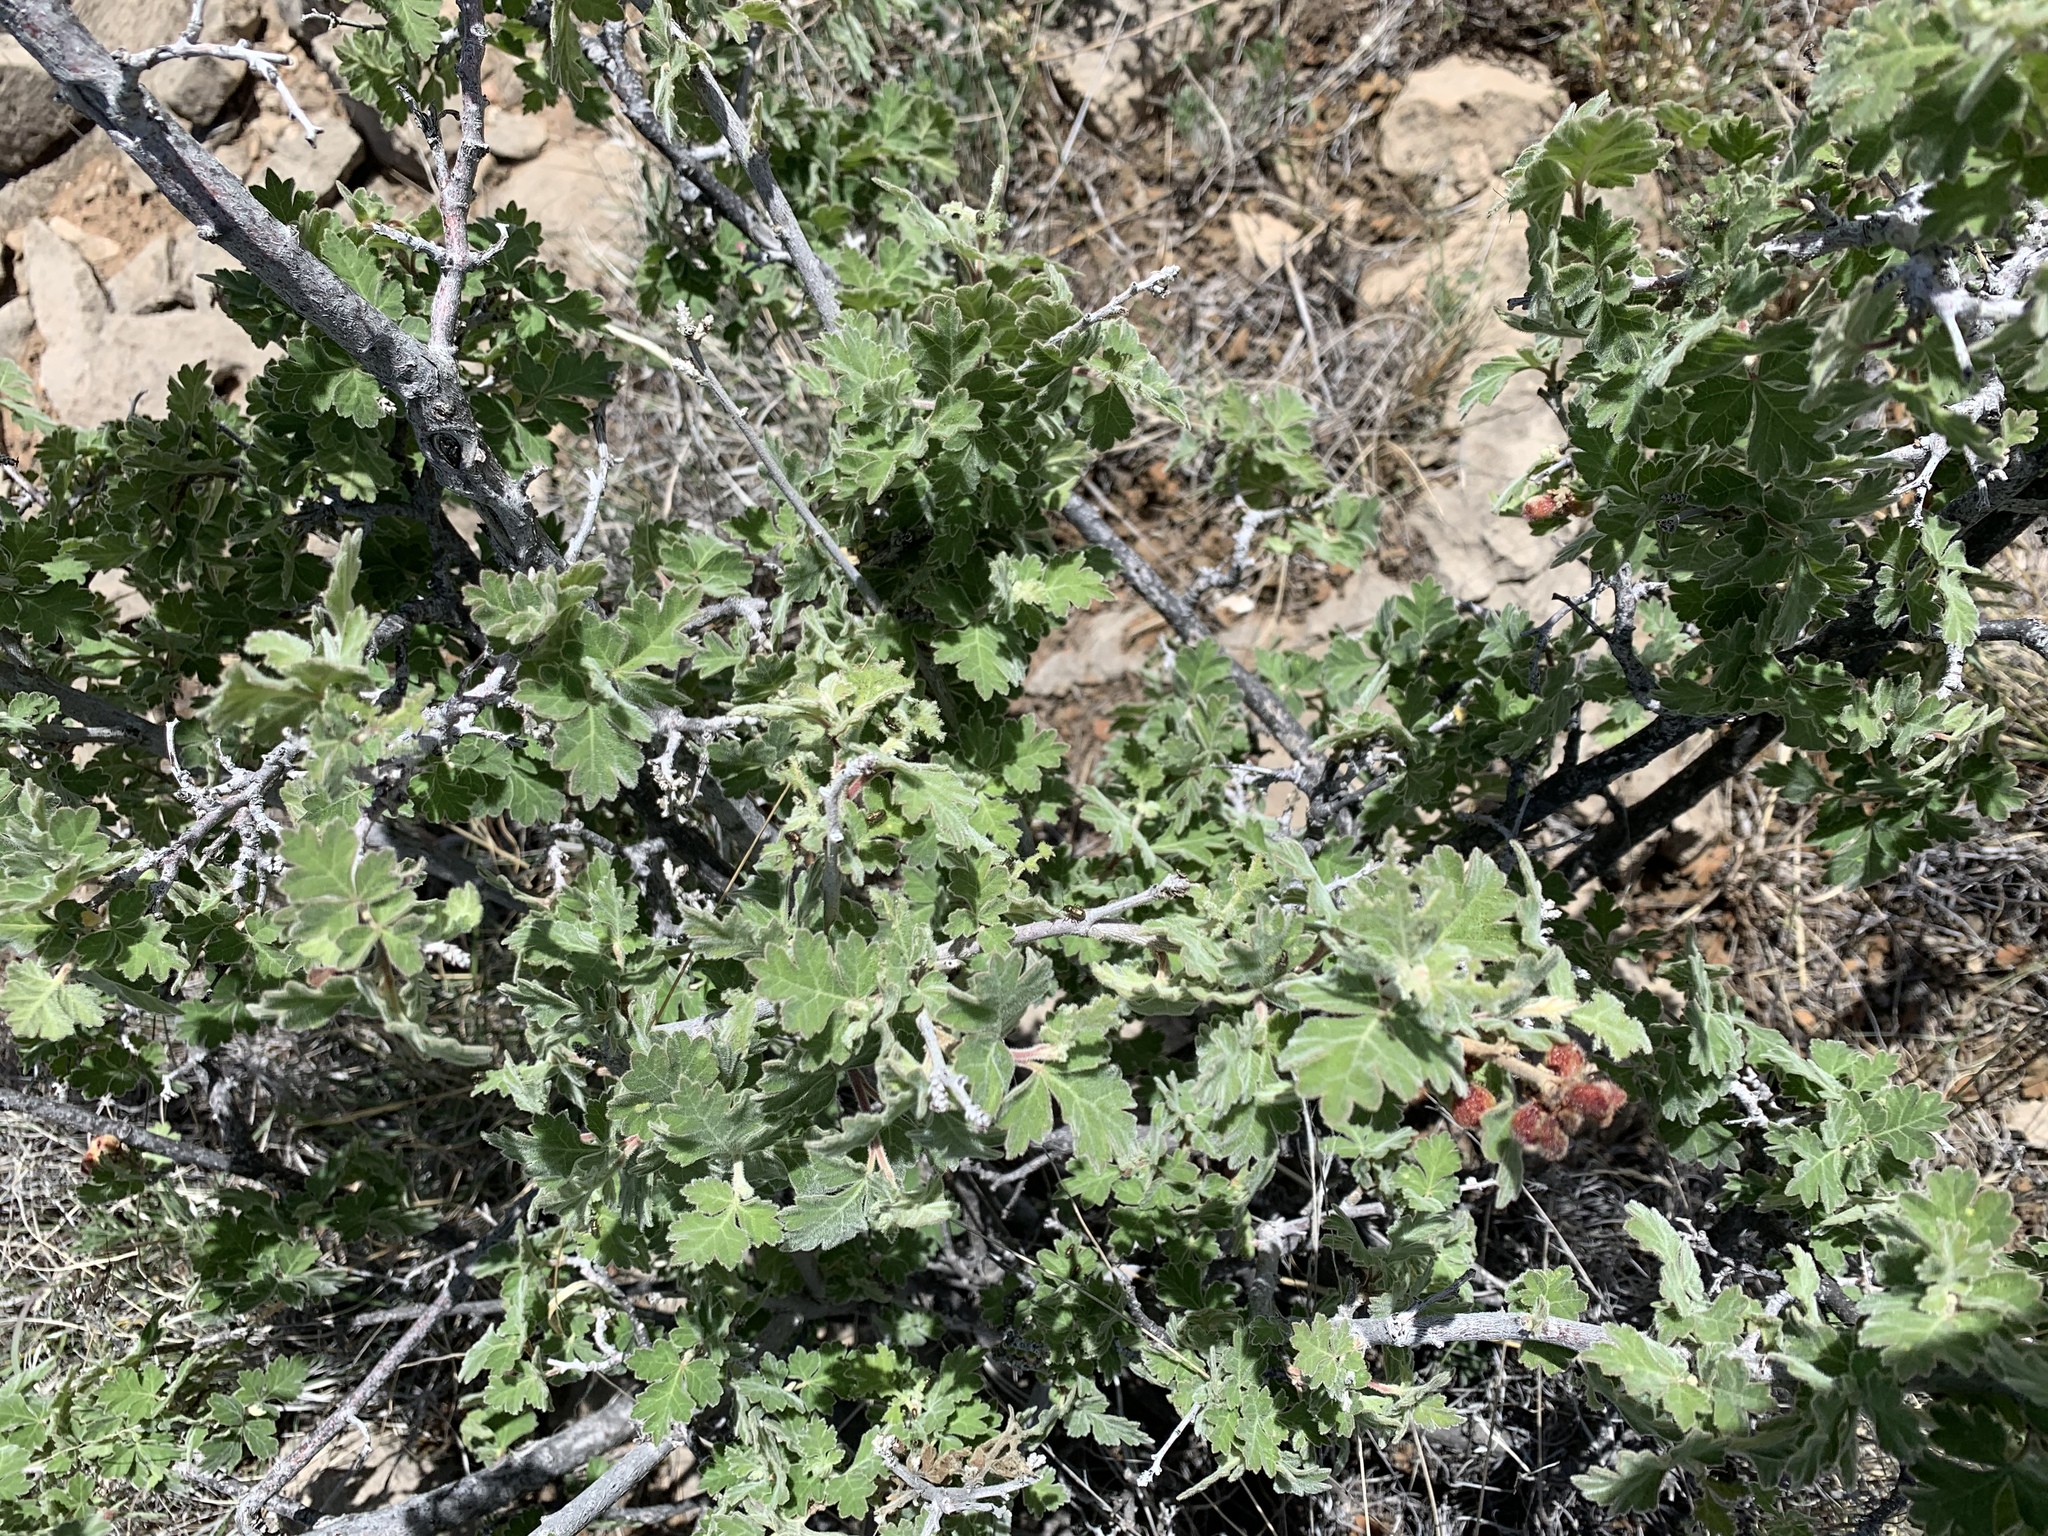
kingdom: Plantae
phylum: Tracheophyta
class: Magnoliopsida
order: Sapindales
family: Anacardiaceae
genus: Rhus
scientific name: Rhus aromatica
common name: Aromatic sumac
